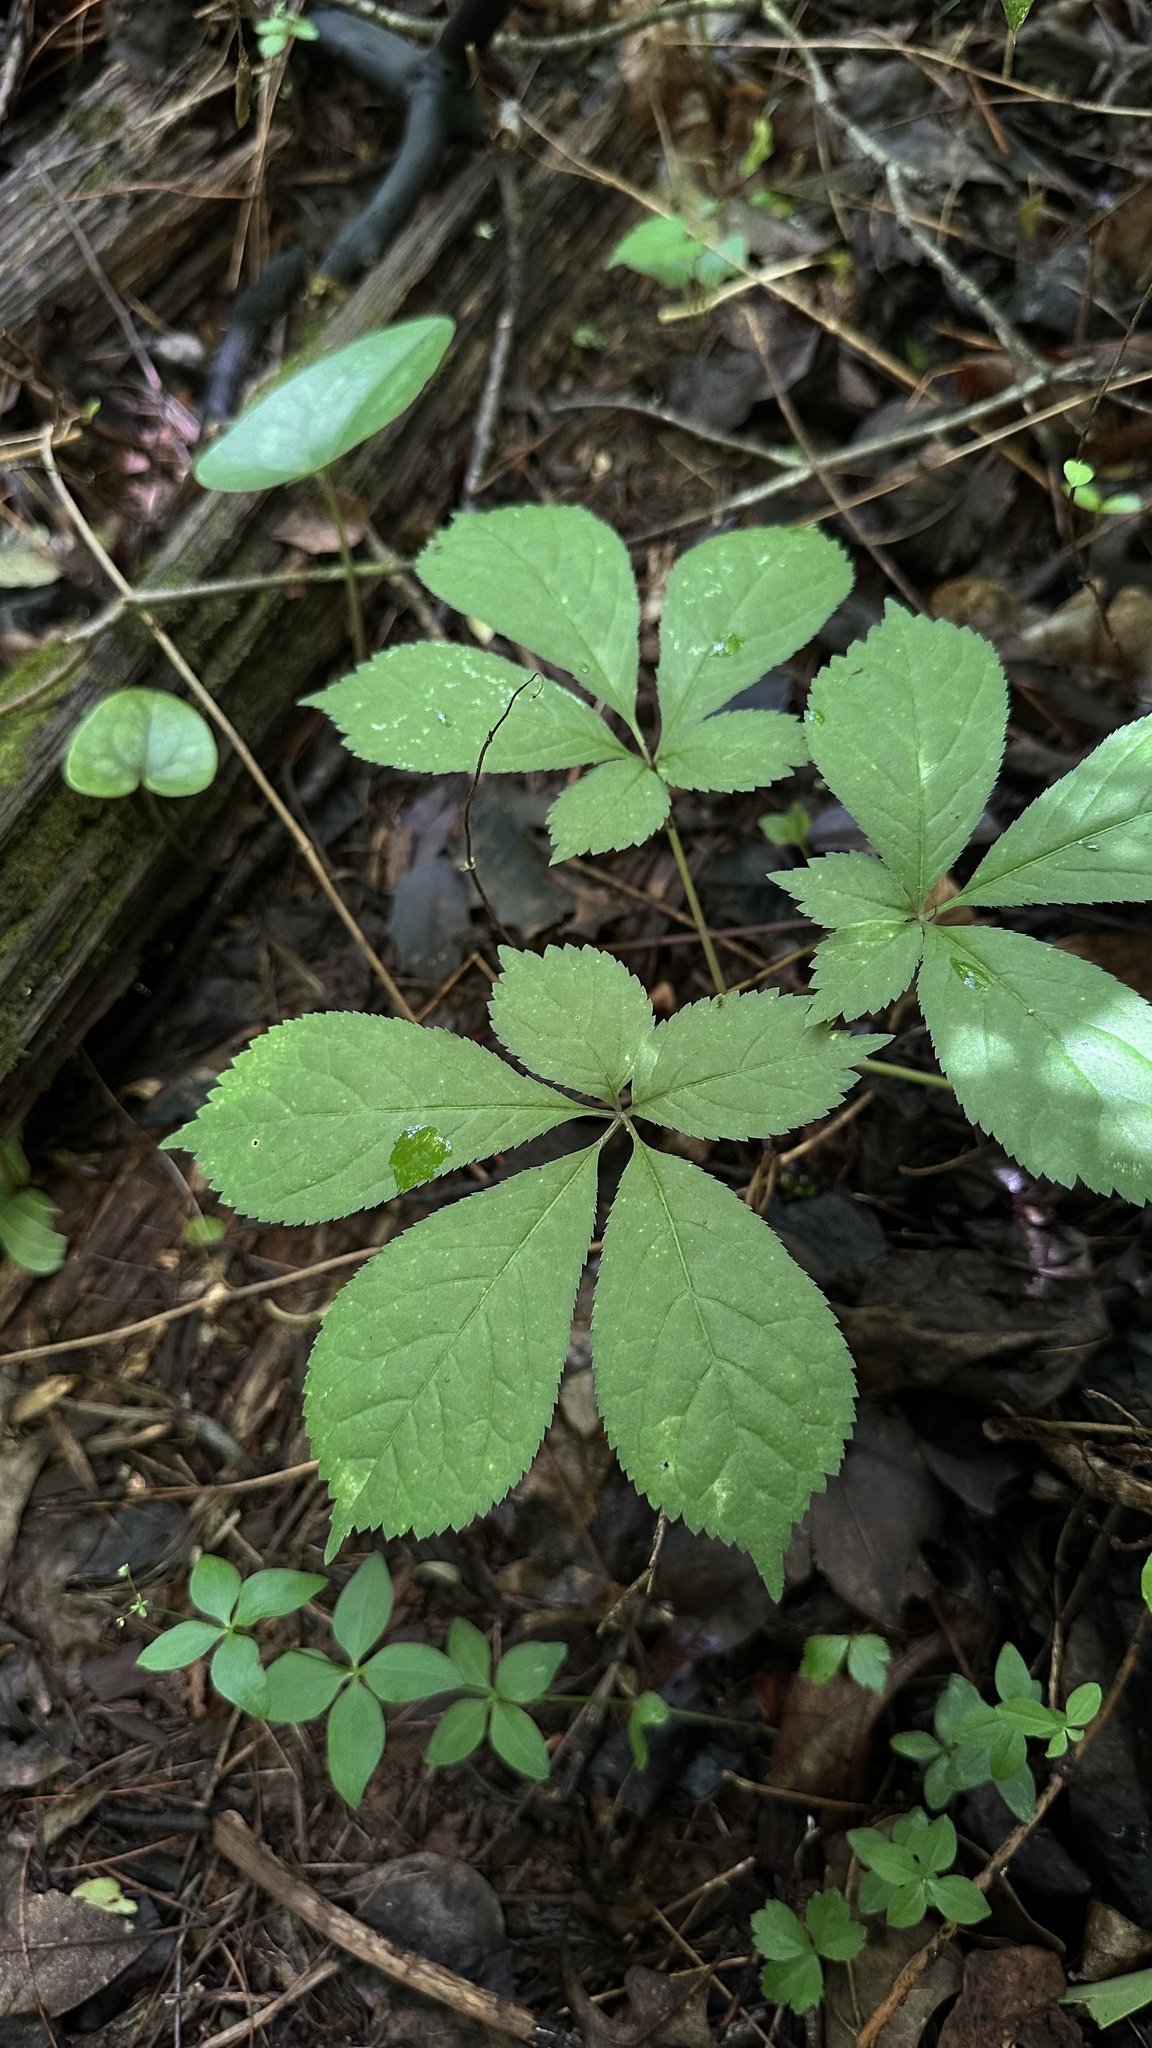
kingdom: Plantae
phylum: Tracheophyta
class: Magnoliopsida
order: Apiales
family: Araliaceae
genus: Panax
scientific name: Panax quinquefolius
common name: American ginseng
